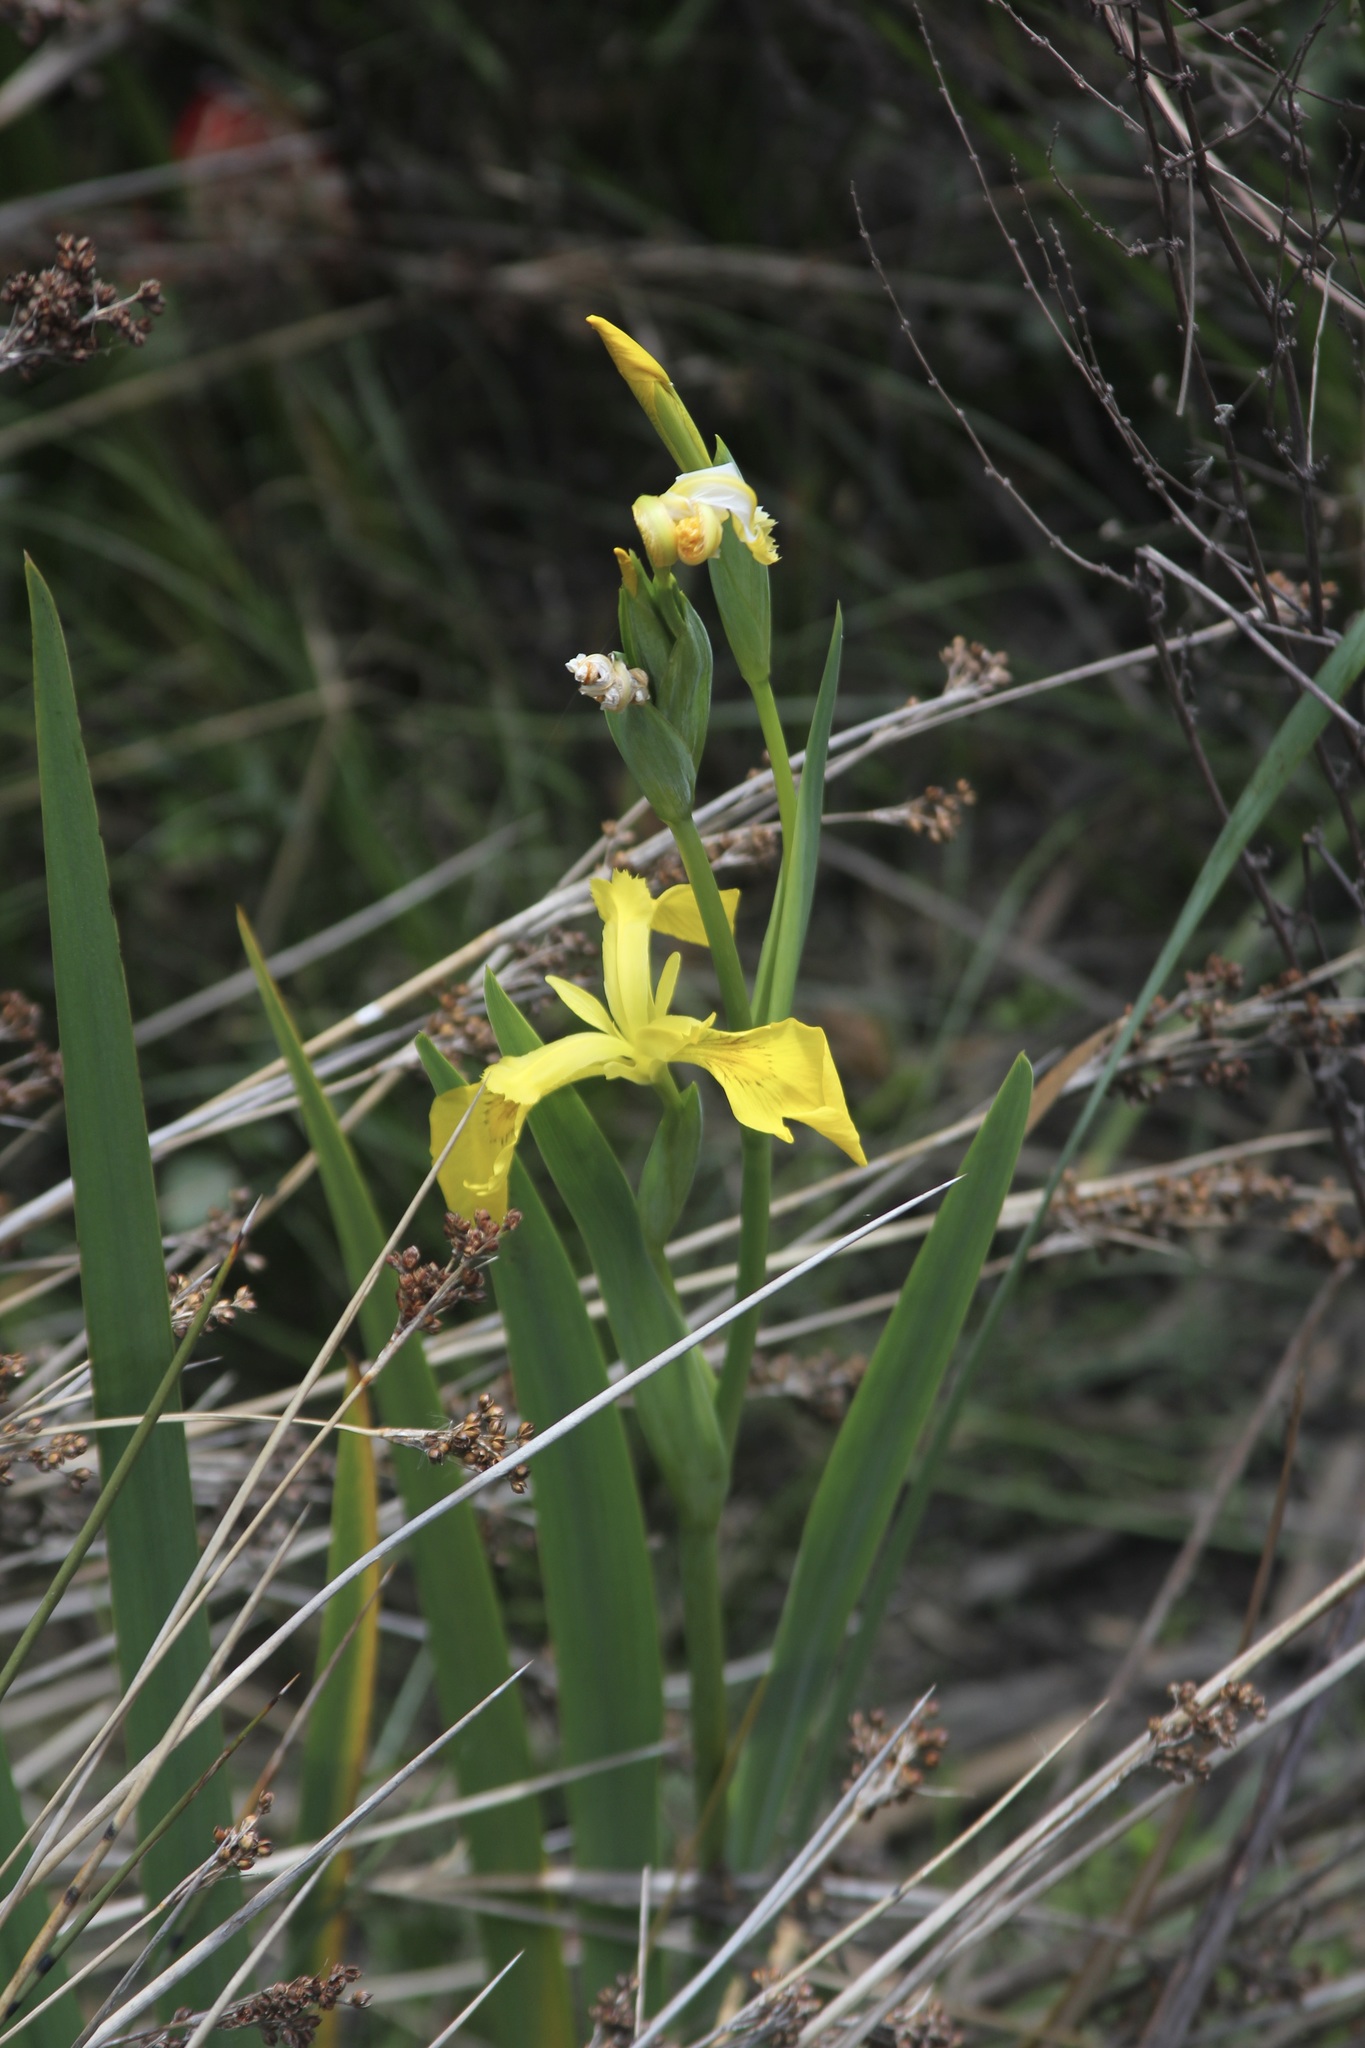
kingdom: Plantae
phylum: Tracheophyta
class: Liliopsida
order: Asparagales
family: Iridaceae
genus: Iris
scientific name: Iris pseudacorus
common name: Yellow flag
